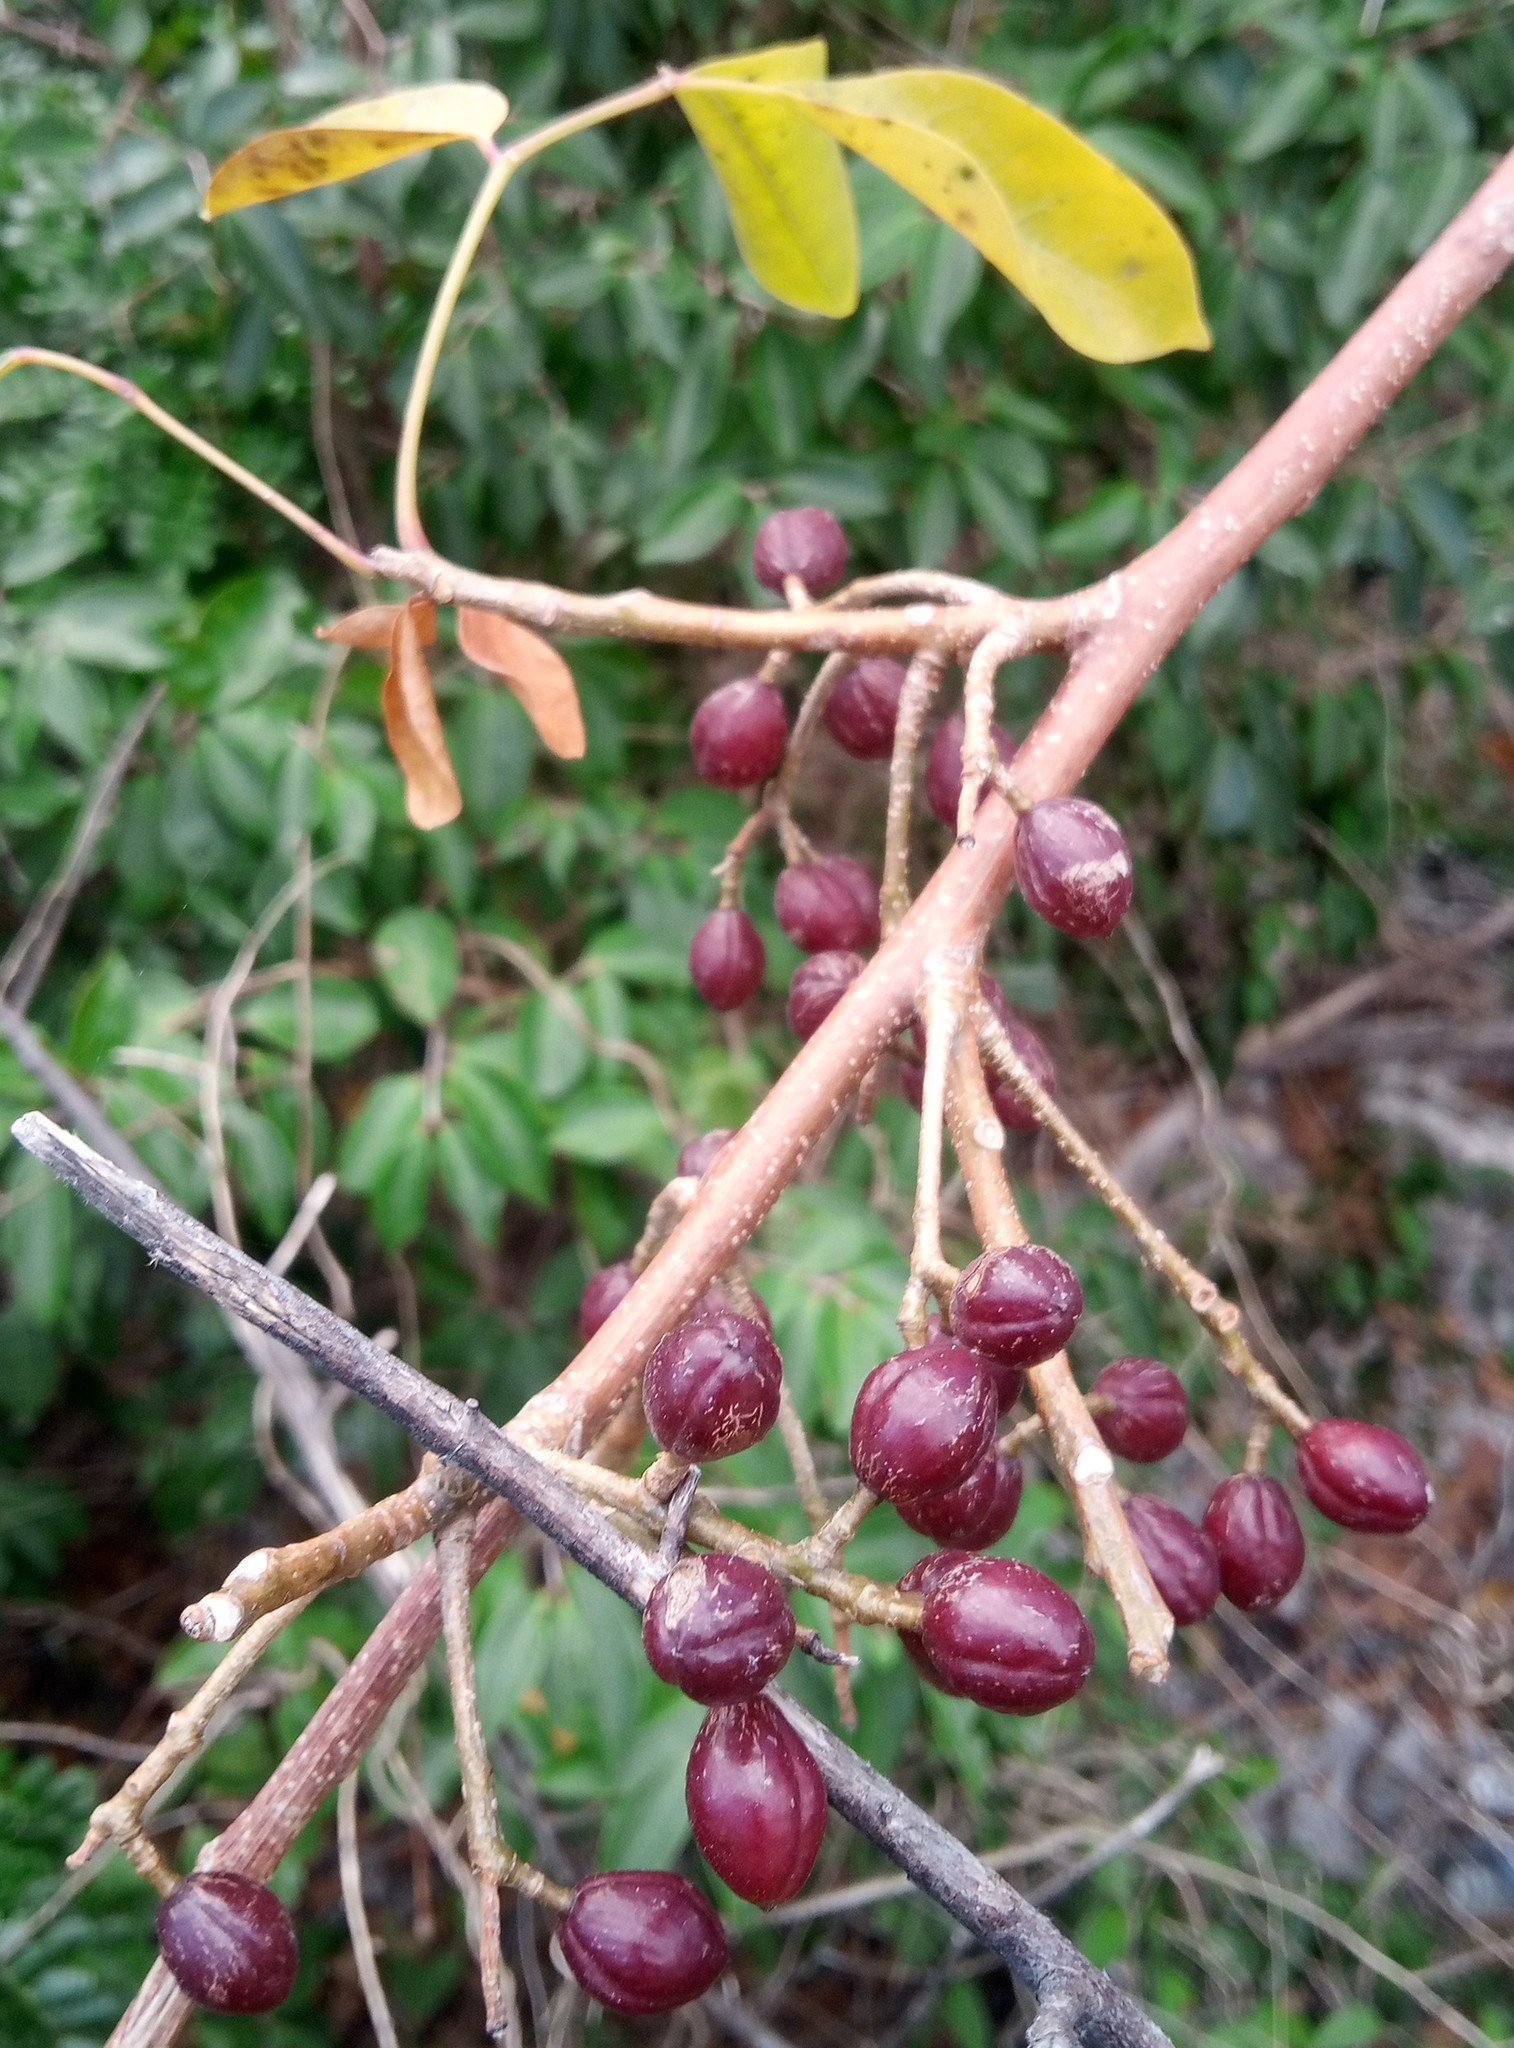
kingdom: Plantae
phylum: Tracheophyta
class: Magnoliopsida
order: Sapindales
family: Burseraceae
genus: Bursera
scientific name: Bursera simaruba
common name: Turpentine tree
